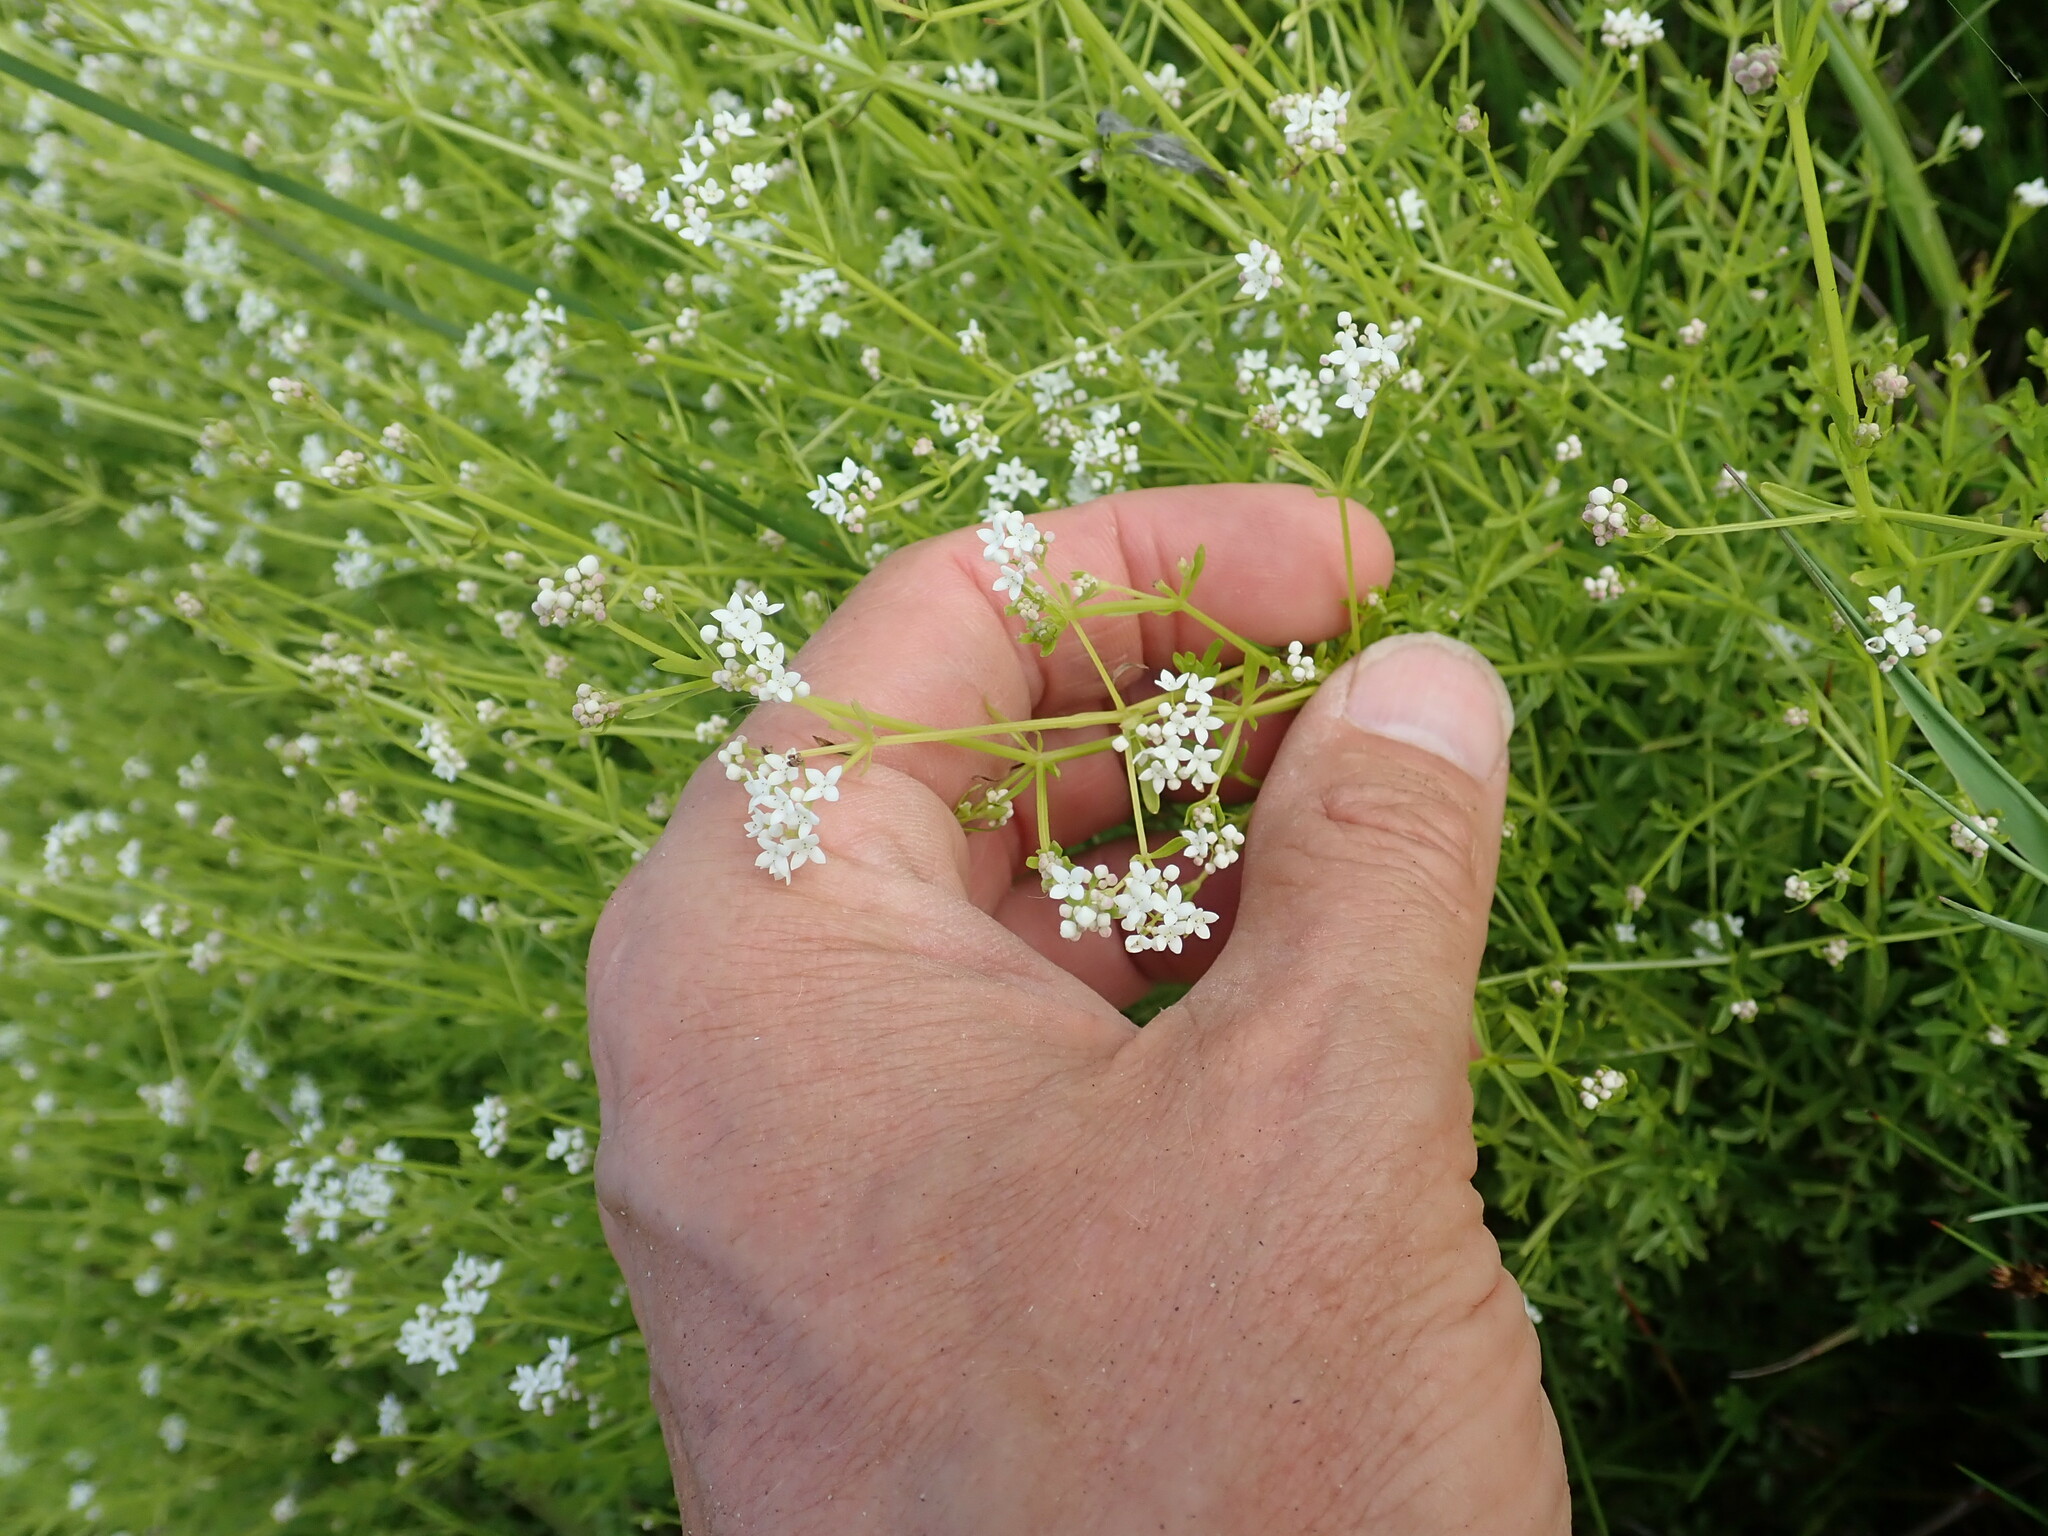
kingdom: Plantae
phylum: Tracheophyta
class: Magnoliopsida
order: Gentianales
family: Rubiaceae
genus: Galium
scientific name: Galium palustre
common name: Common marsh-bedstraw
